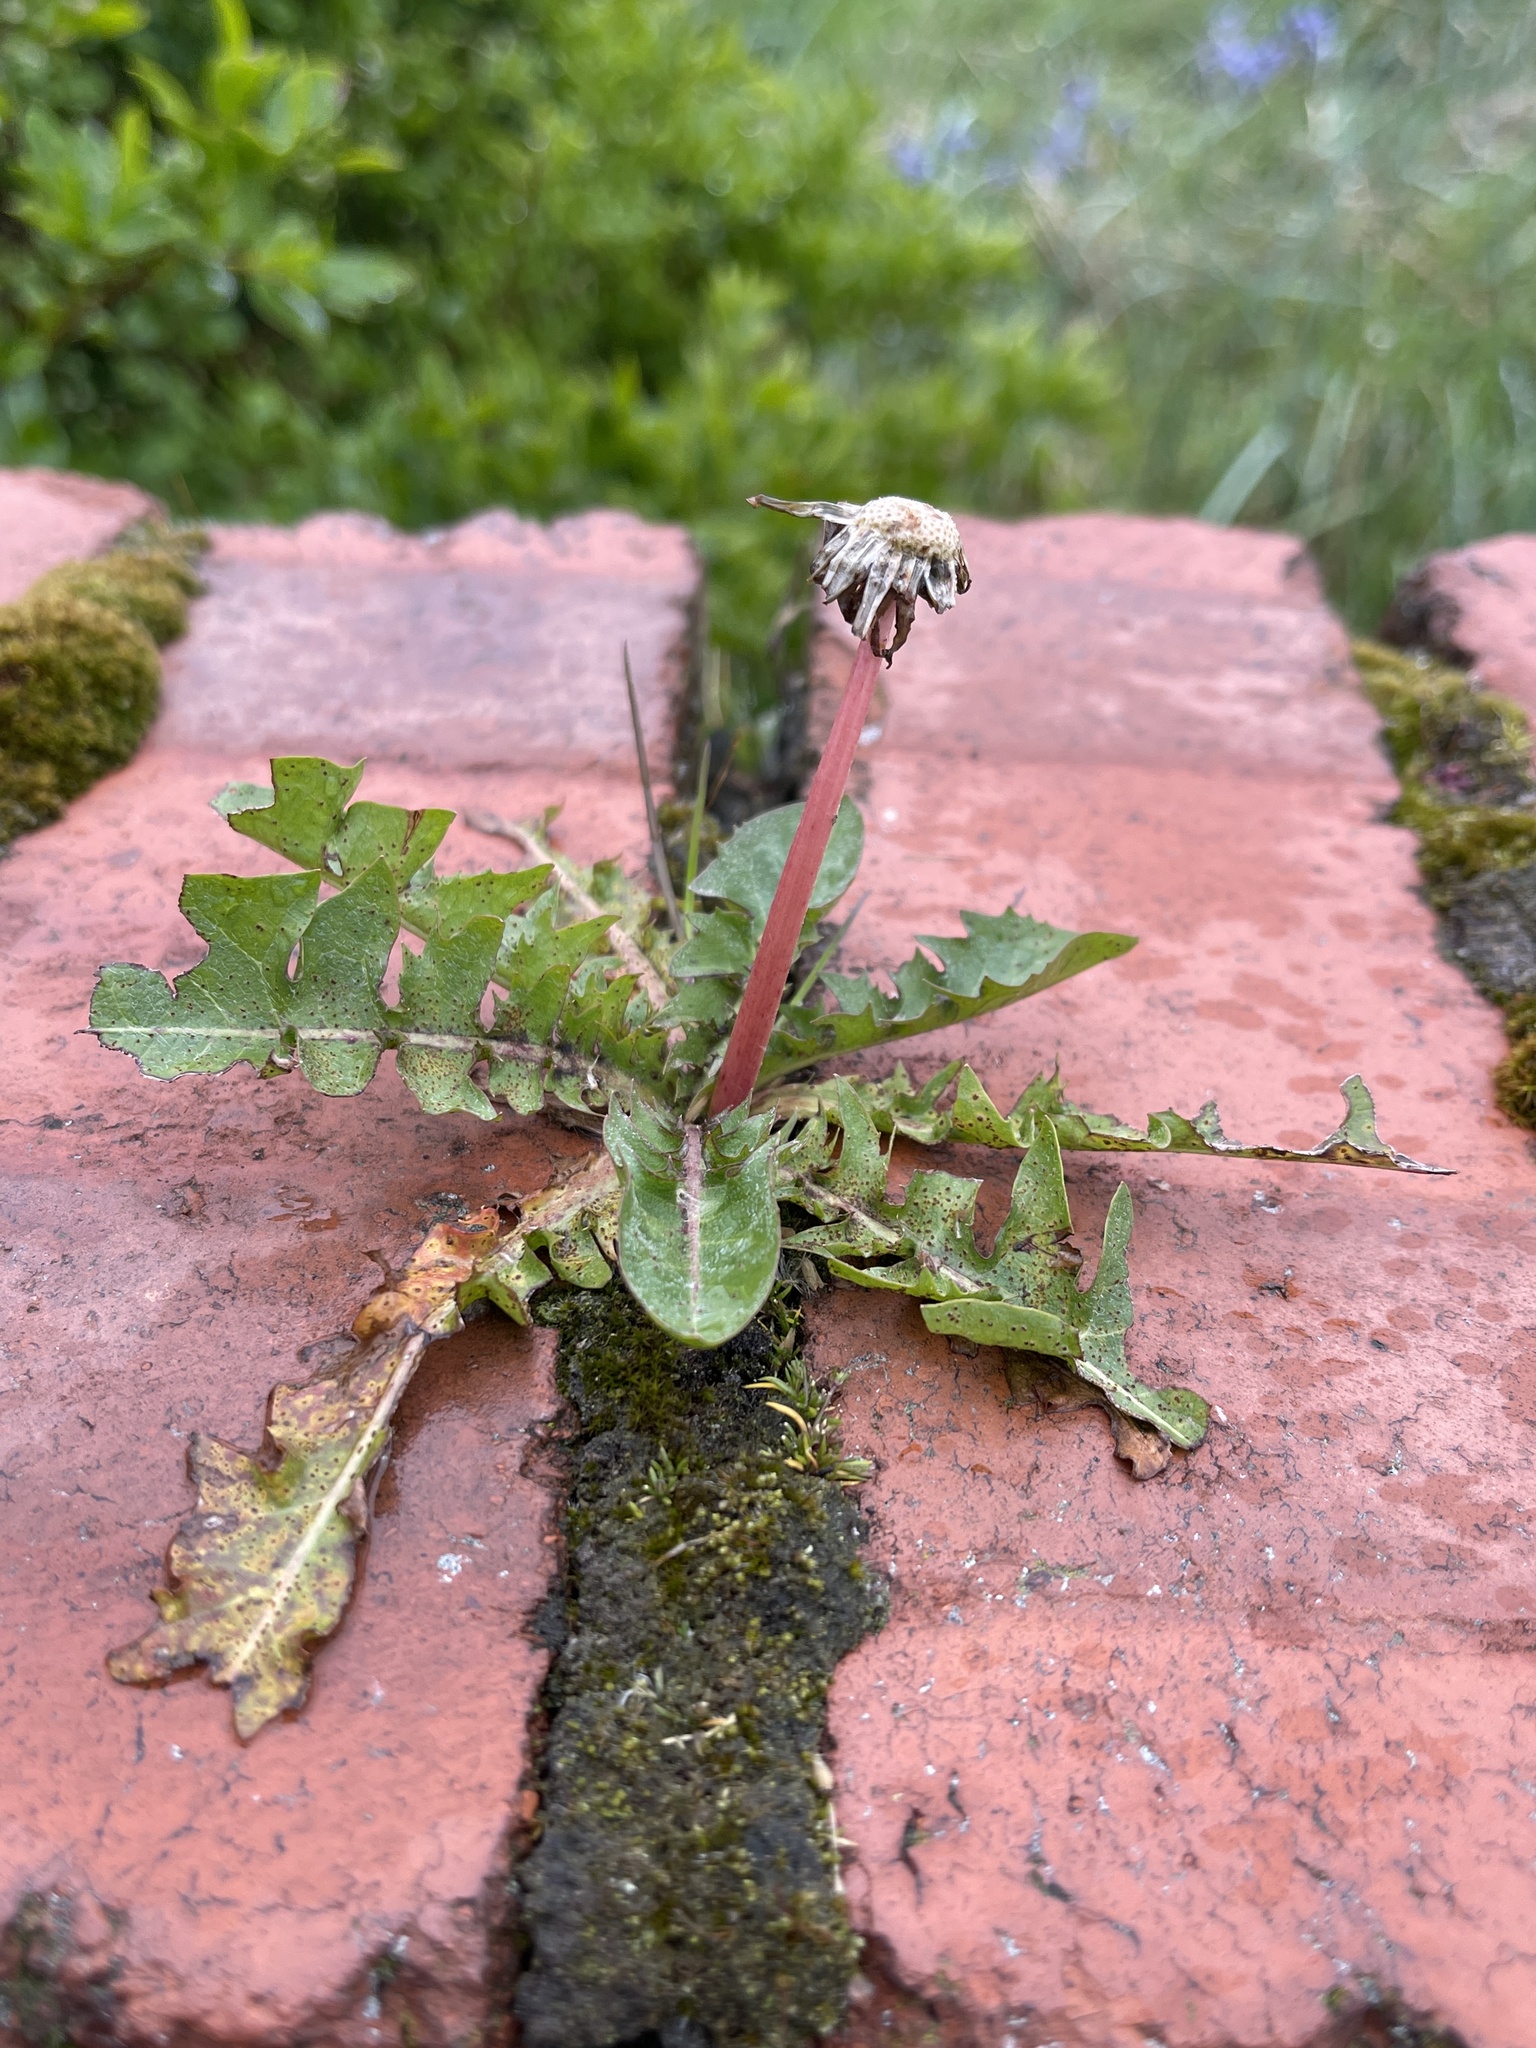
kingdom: Plantae
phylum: Tracheophyta
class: Magnoliopsida
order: Asterales
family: Asteraceae
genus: Taraxacum
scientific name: Taraxacum officinale
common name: Common dandelion
